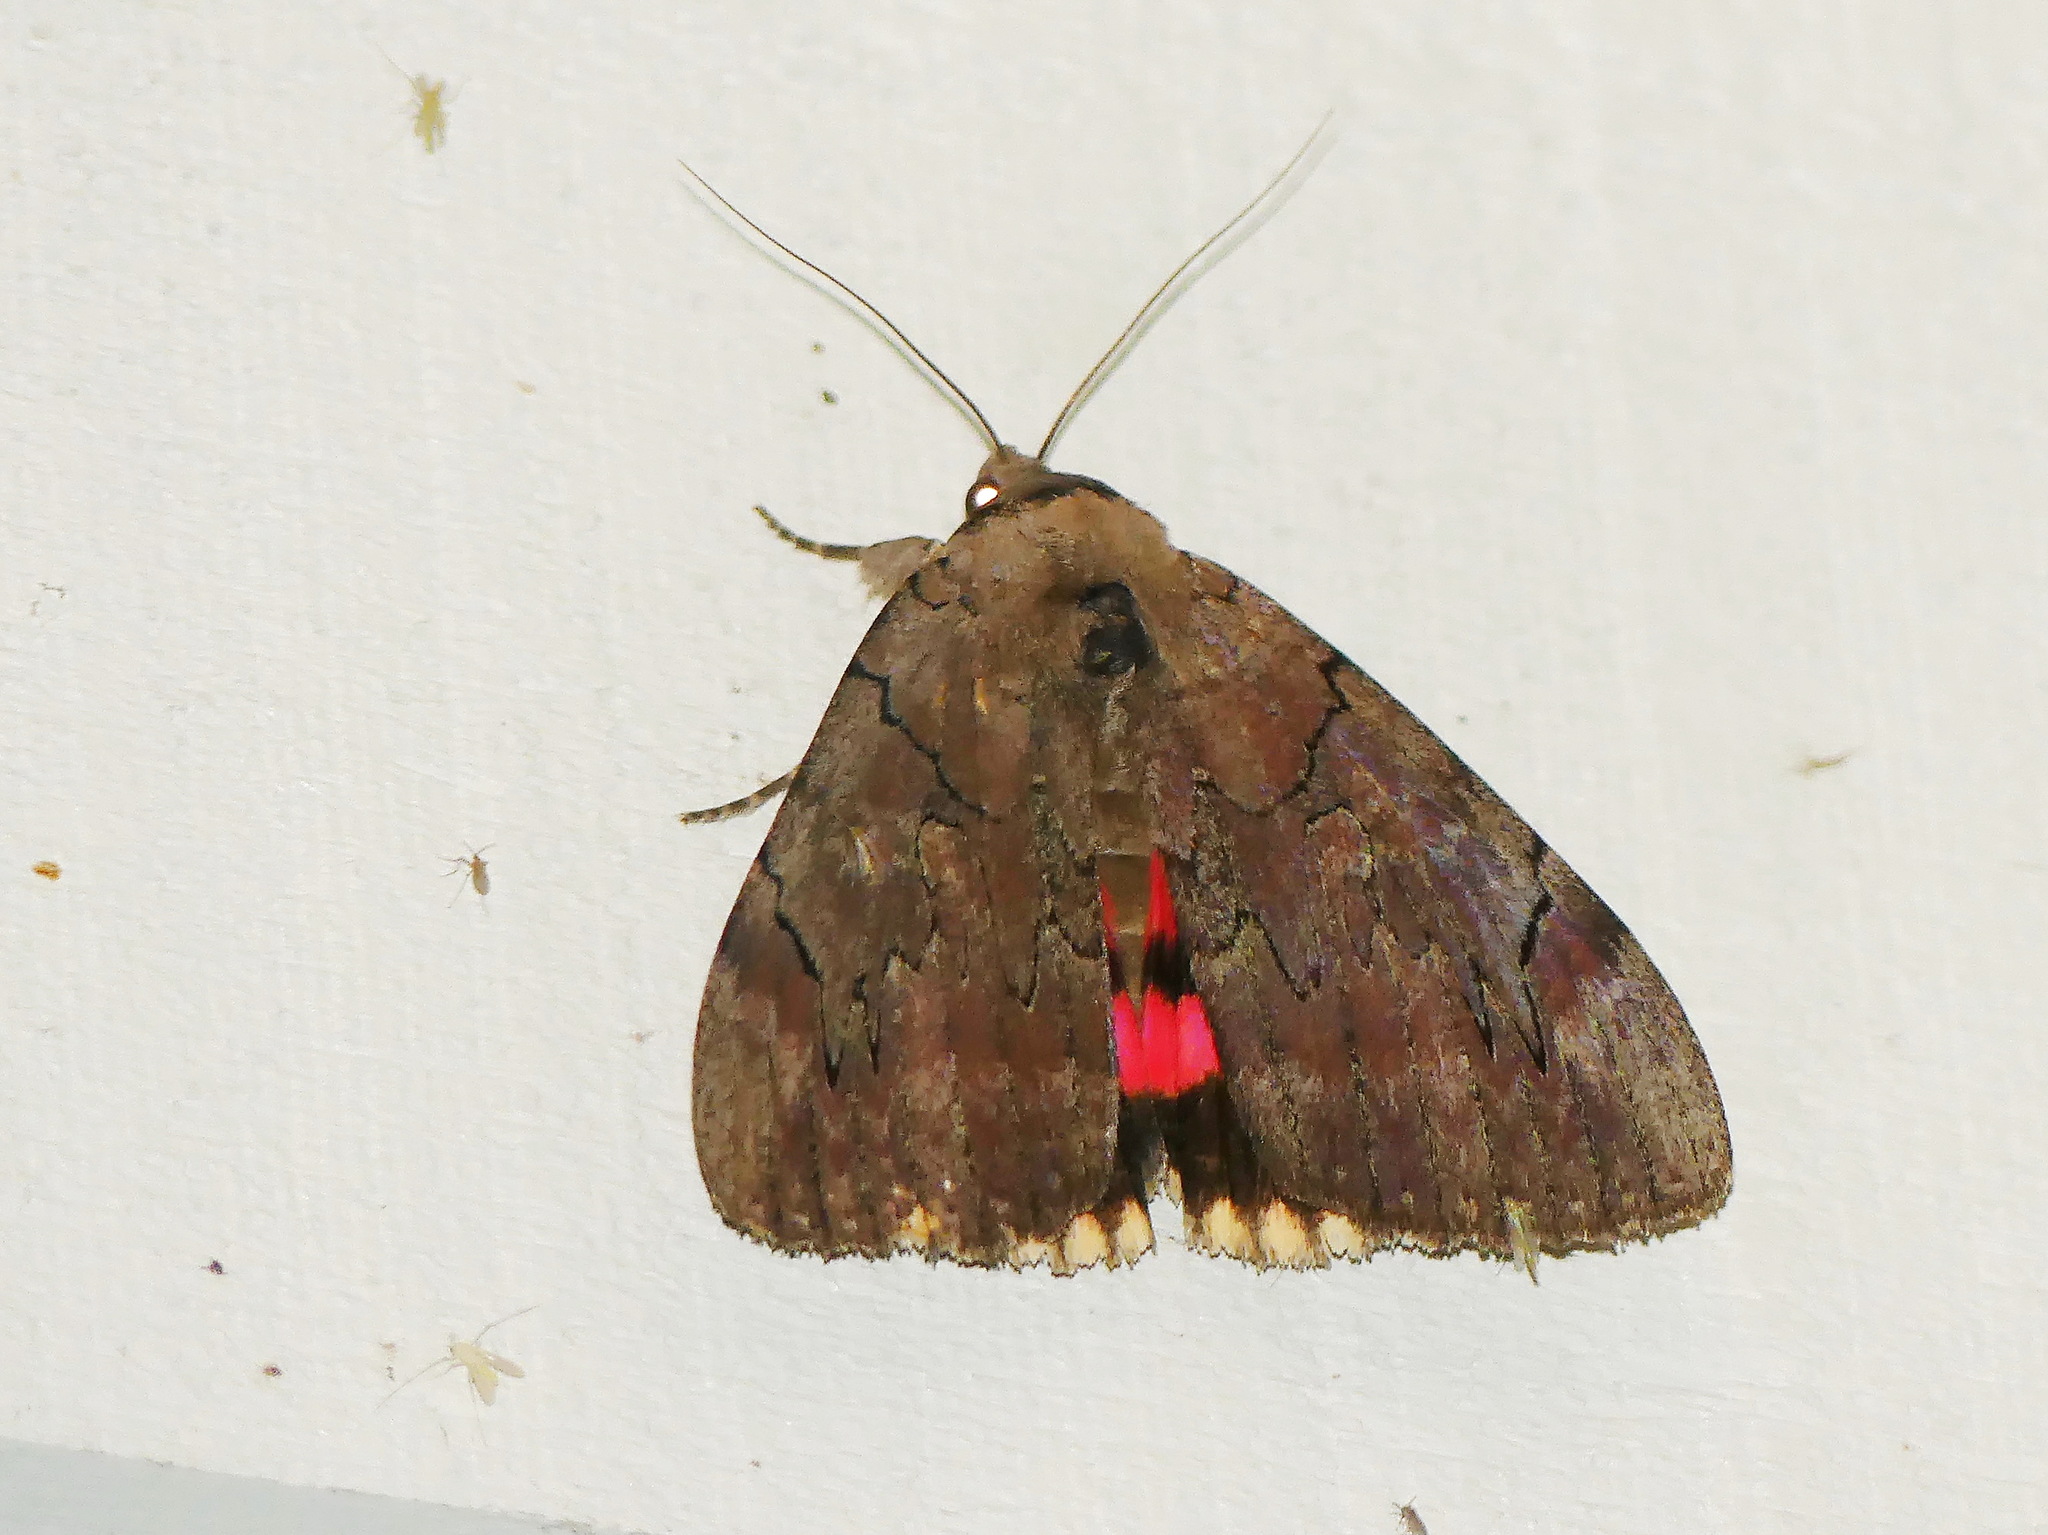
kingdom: Animalia
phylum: Arthropoda
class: Insecta
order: Lepidoptera
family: Erebidae
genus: Catocala
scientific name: Catocala cara
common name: Darling underwing
